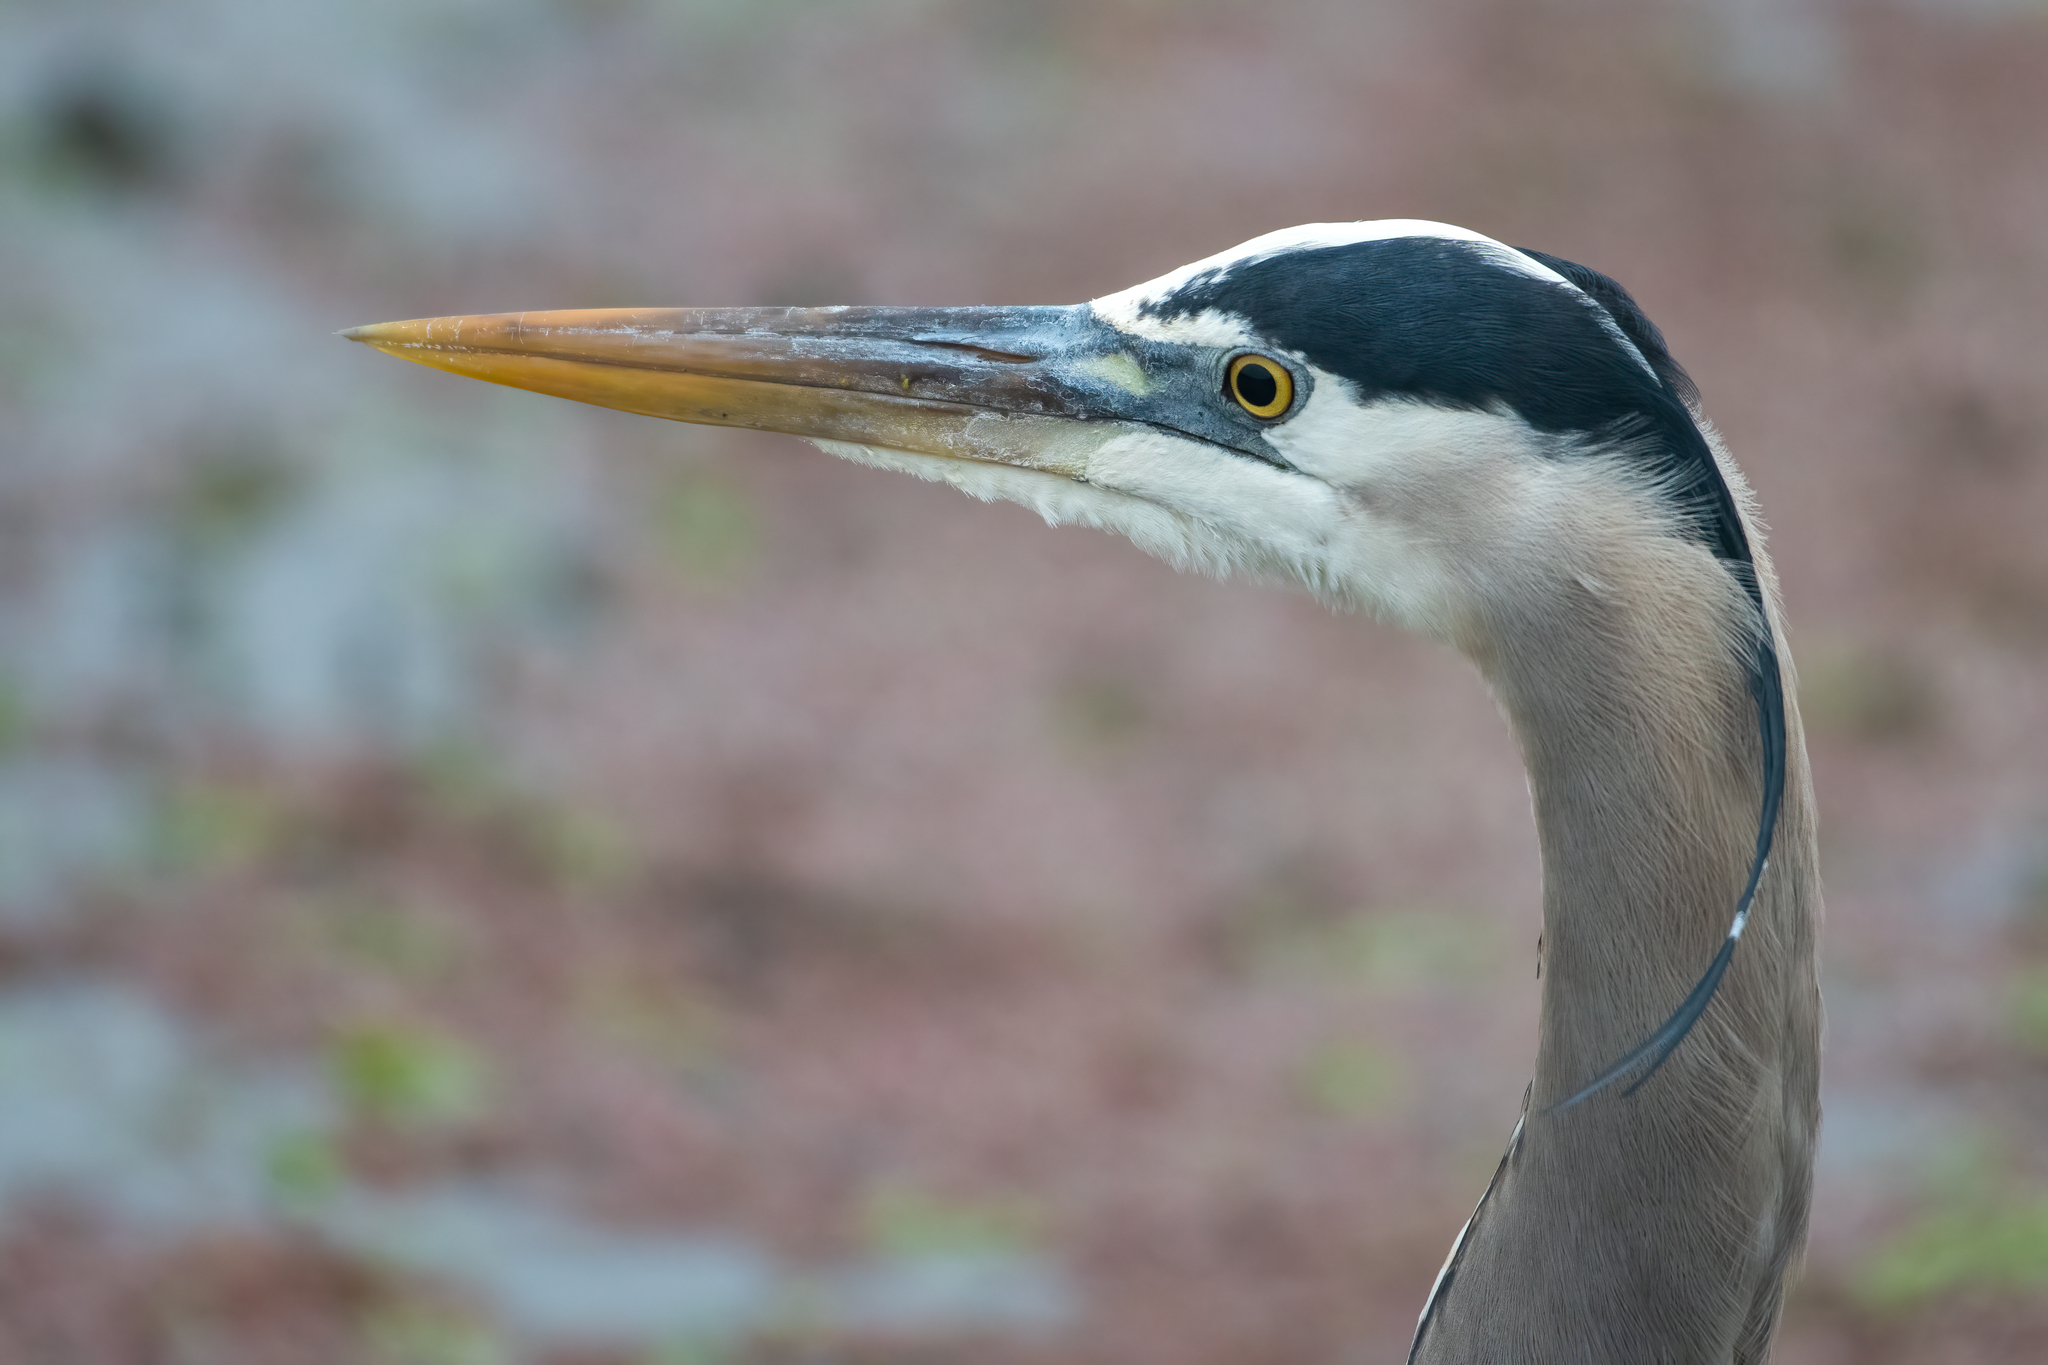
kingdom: Animalia
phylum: Chordata
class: Aves
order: Pelecaniformes
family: Ardeidae
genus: Ardea
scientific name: Ardea herodias
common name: Great blue heron
